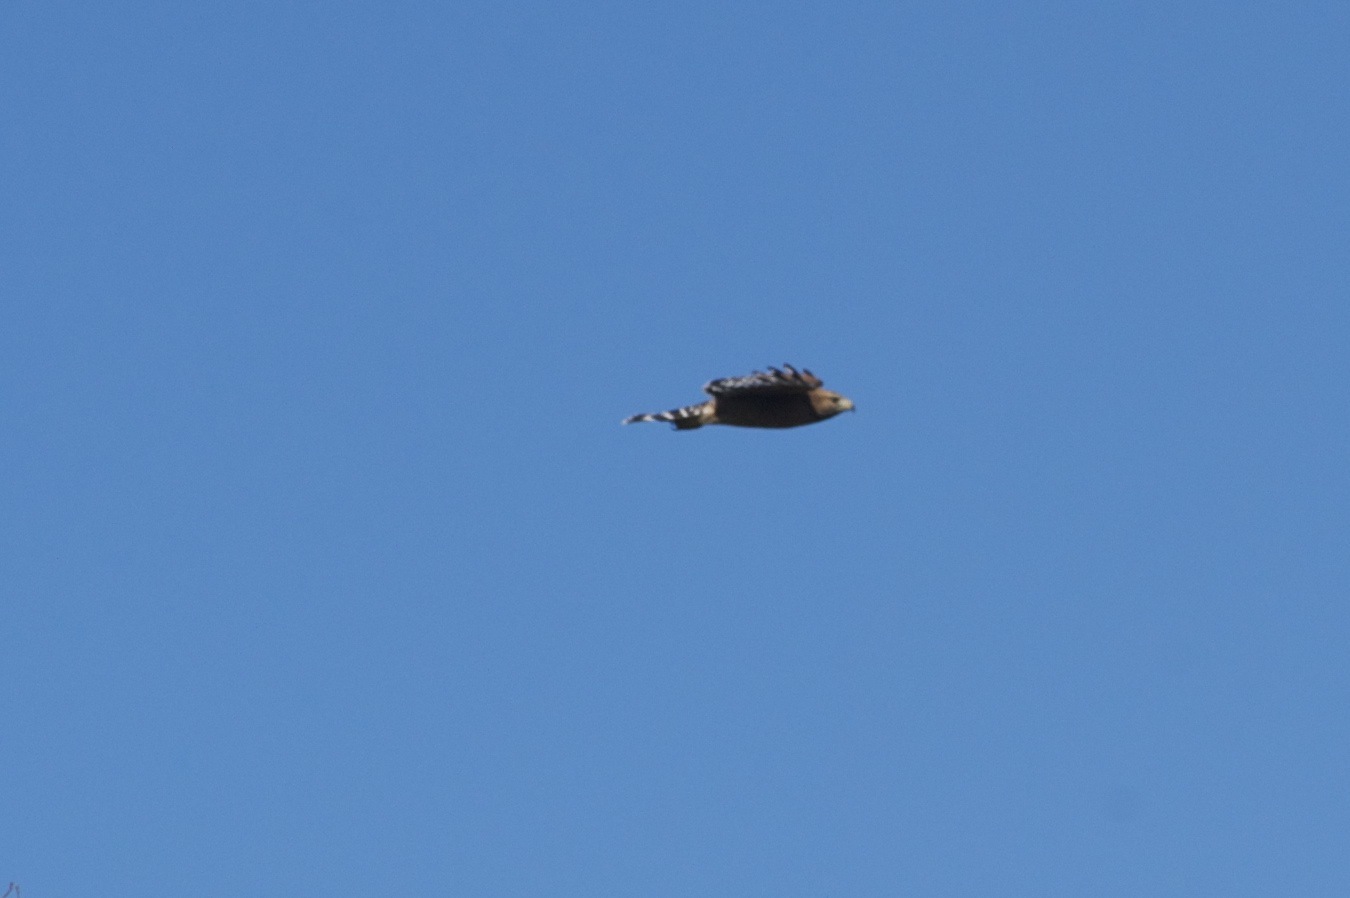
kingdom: Animalia
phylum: Chordata
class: Aves
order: Accipitriformes
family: Accipitridae
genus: Buteo
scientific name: Buteo lineatus
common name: Red-shouldered hawk
